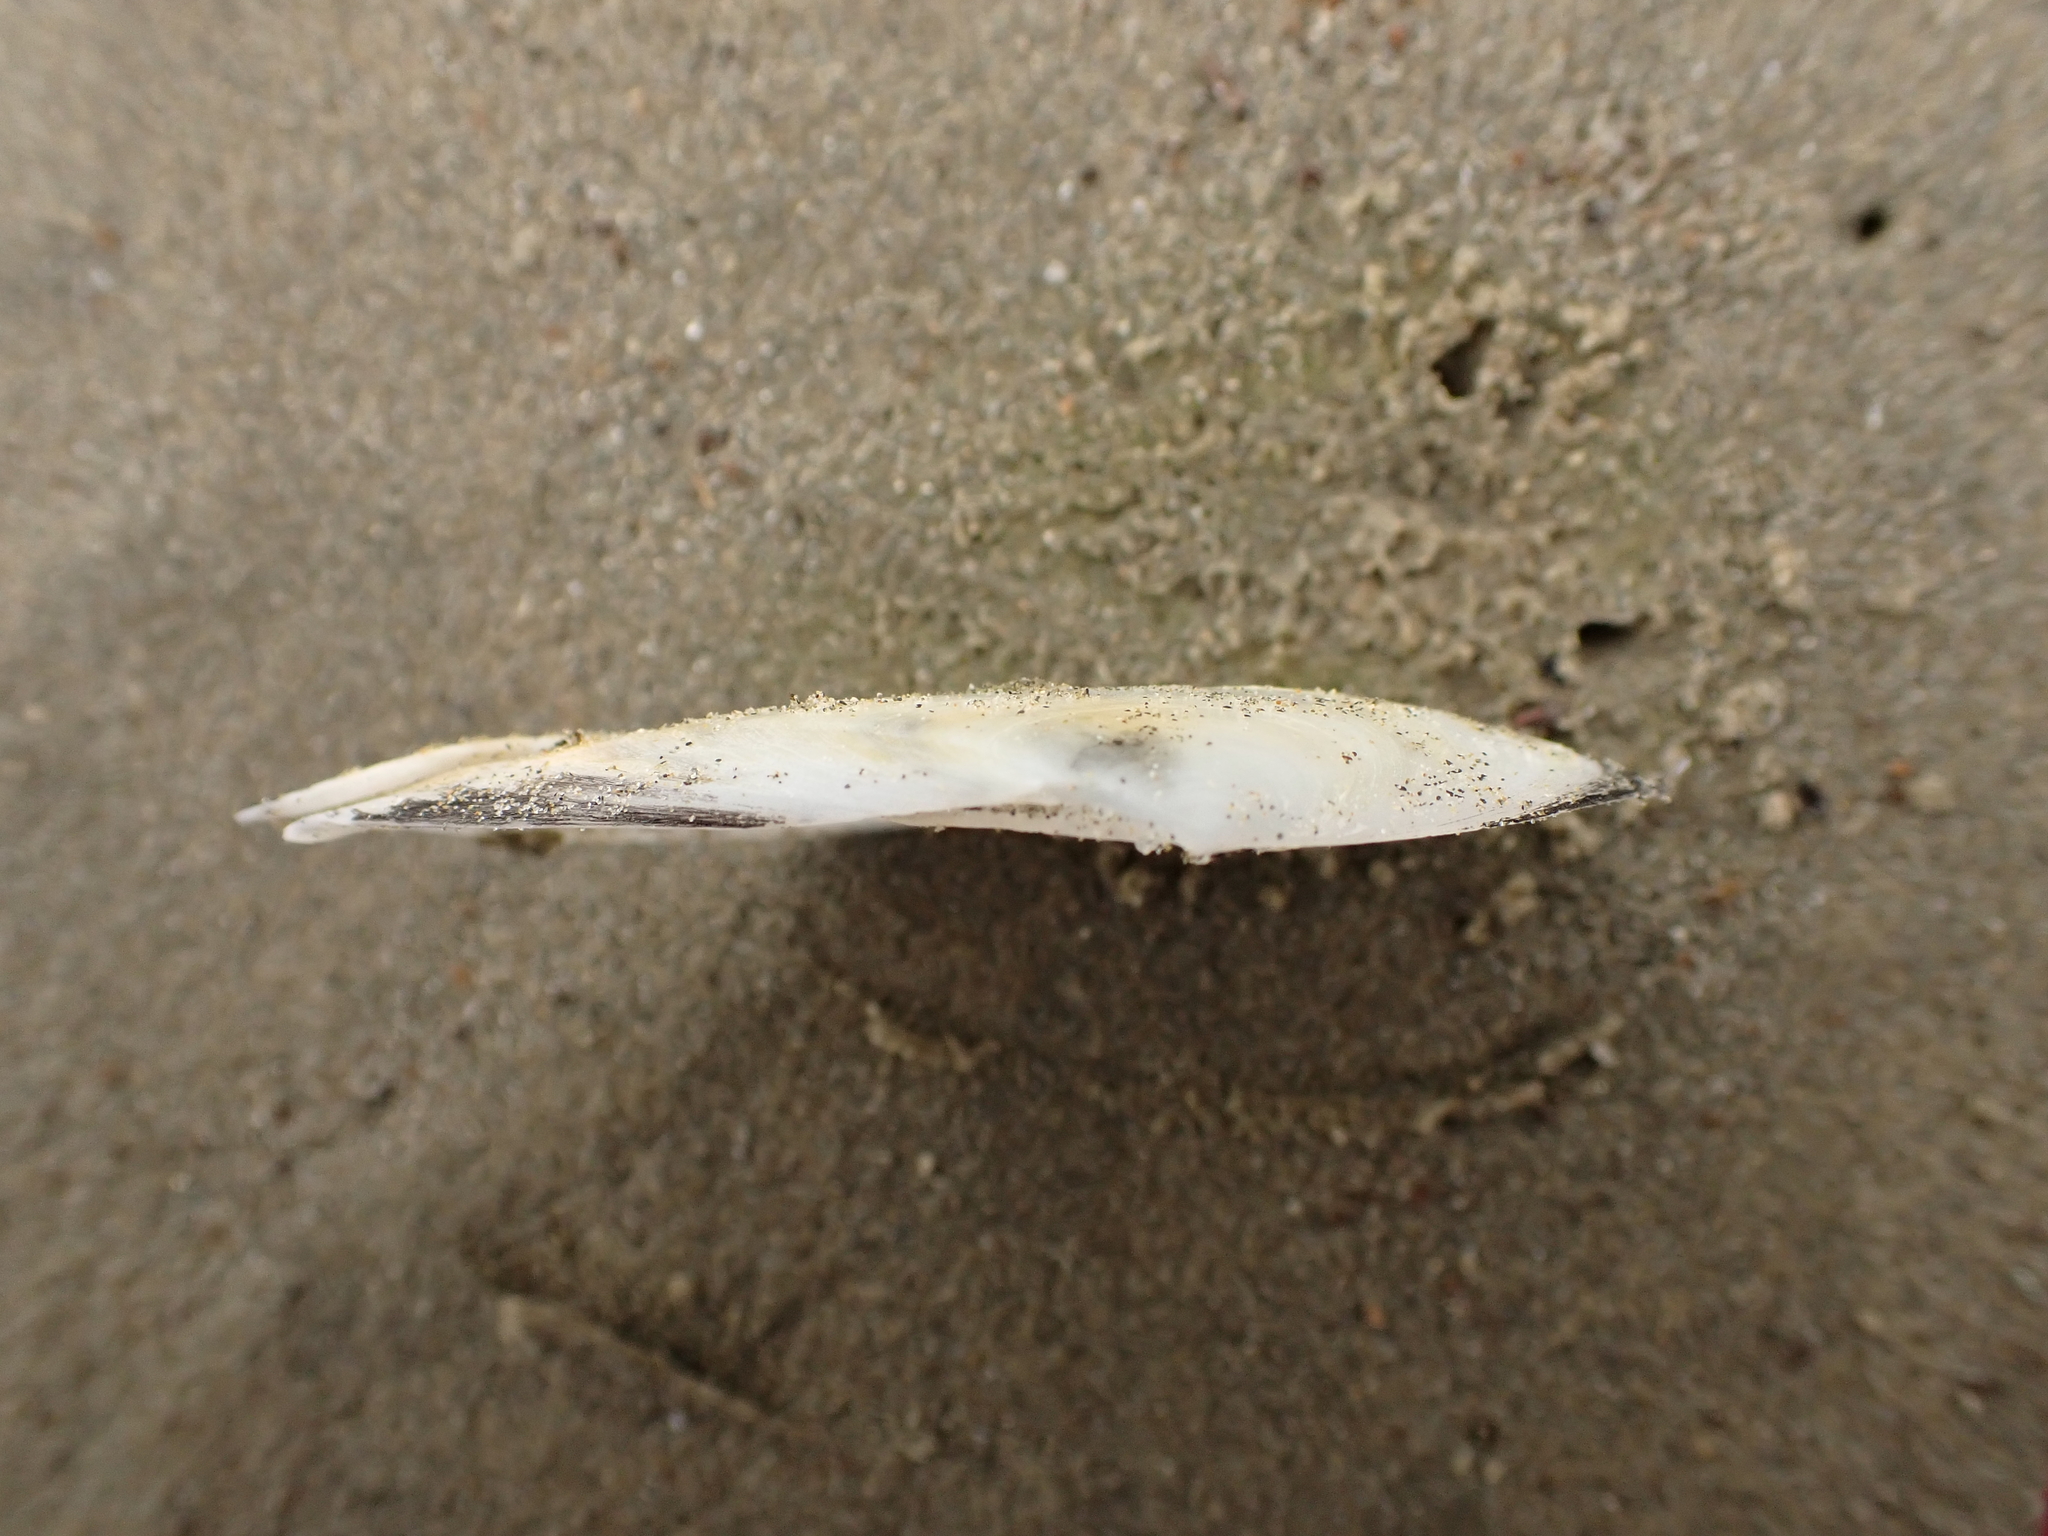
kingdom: Animalia
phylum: Mollusca
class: Bivalvia
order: Cardiida
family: Tellinidae
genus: Bartschicoma
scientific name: Bartschicoma gaimardi
